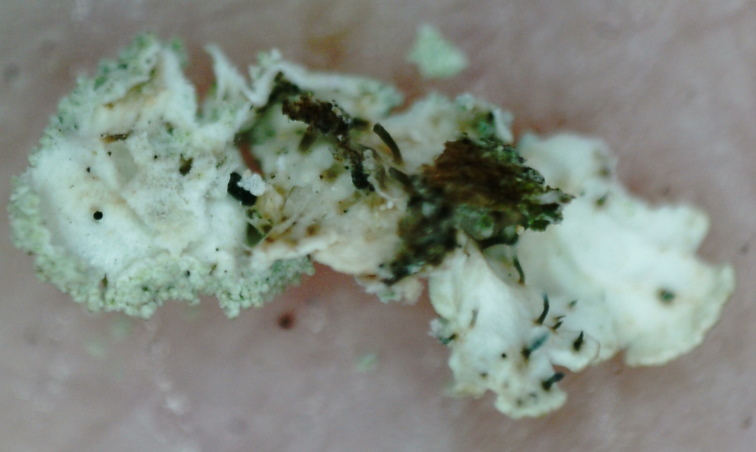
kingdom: Fungi
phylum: Ascomycota
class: Lecanoromycetes
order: Lecanorales
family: Parmeliaceae
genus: Imshaugia
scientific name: Imshaugia aleurites
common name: Salted starburst lichen
